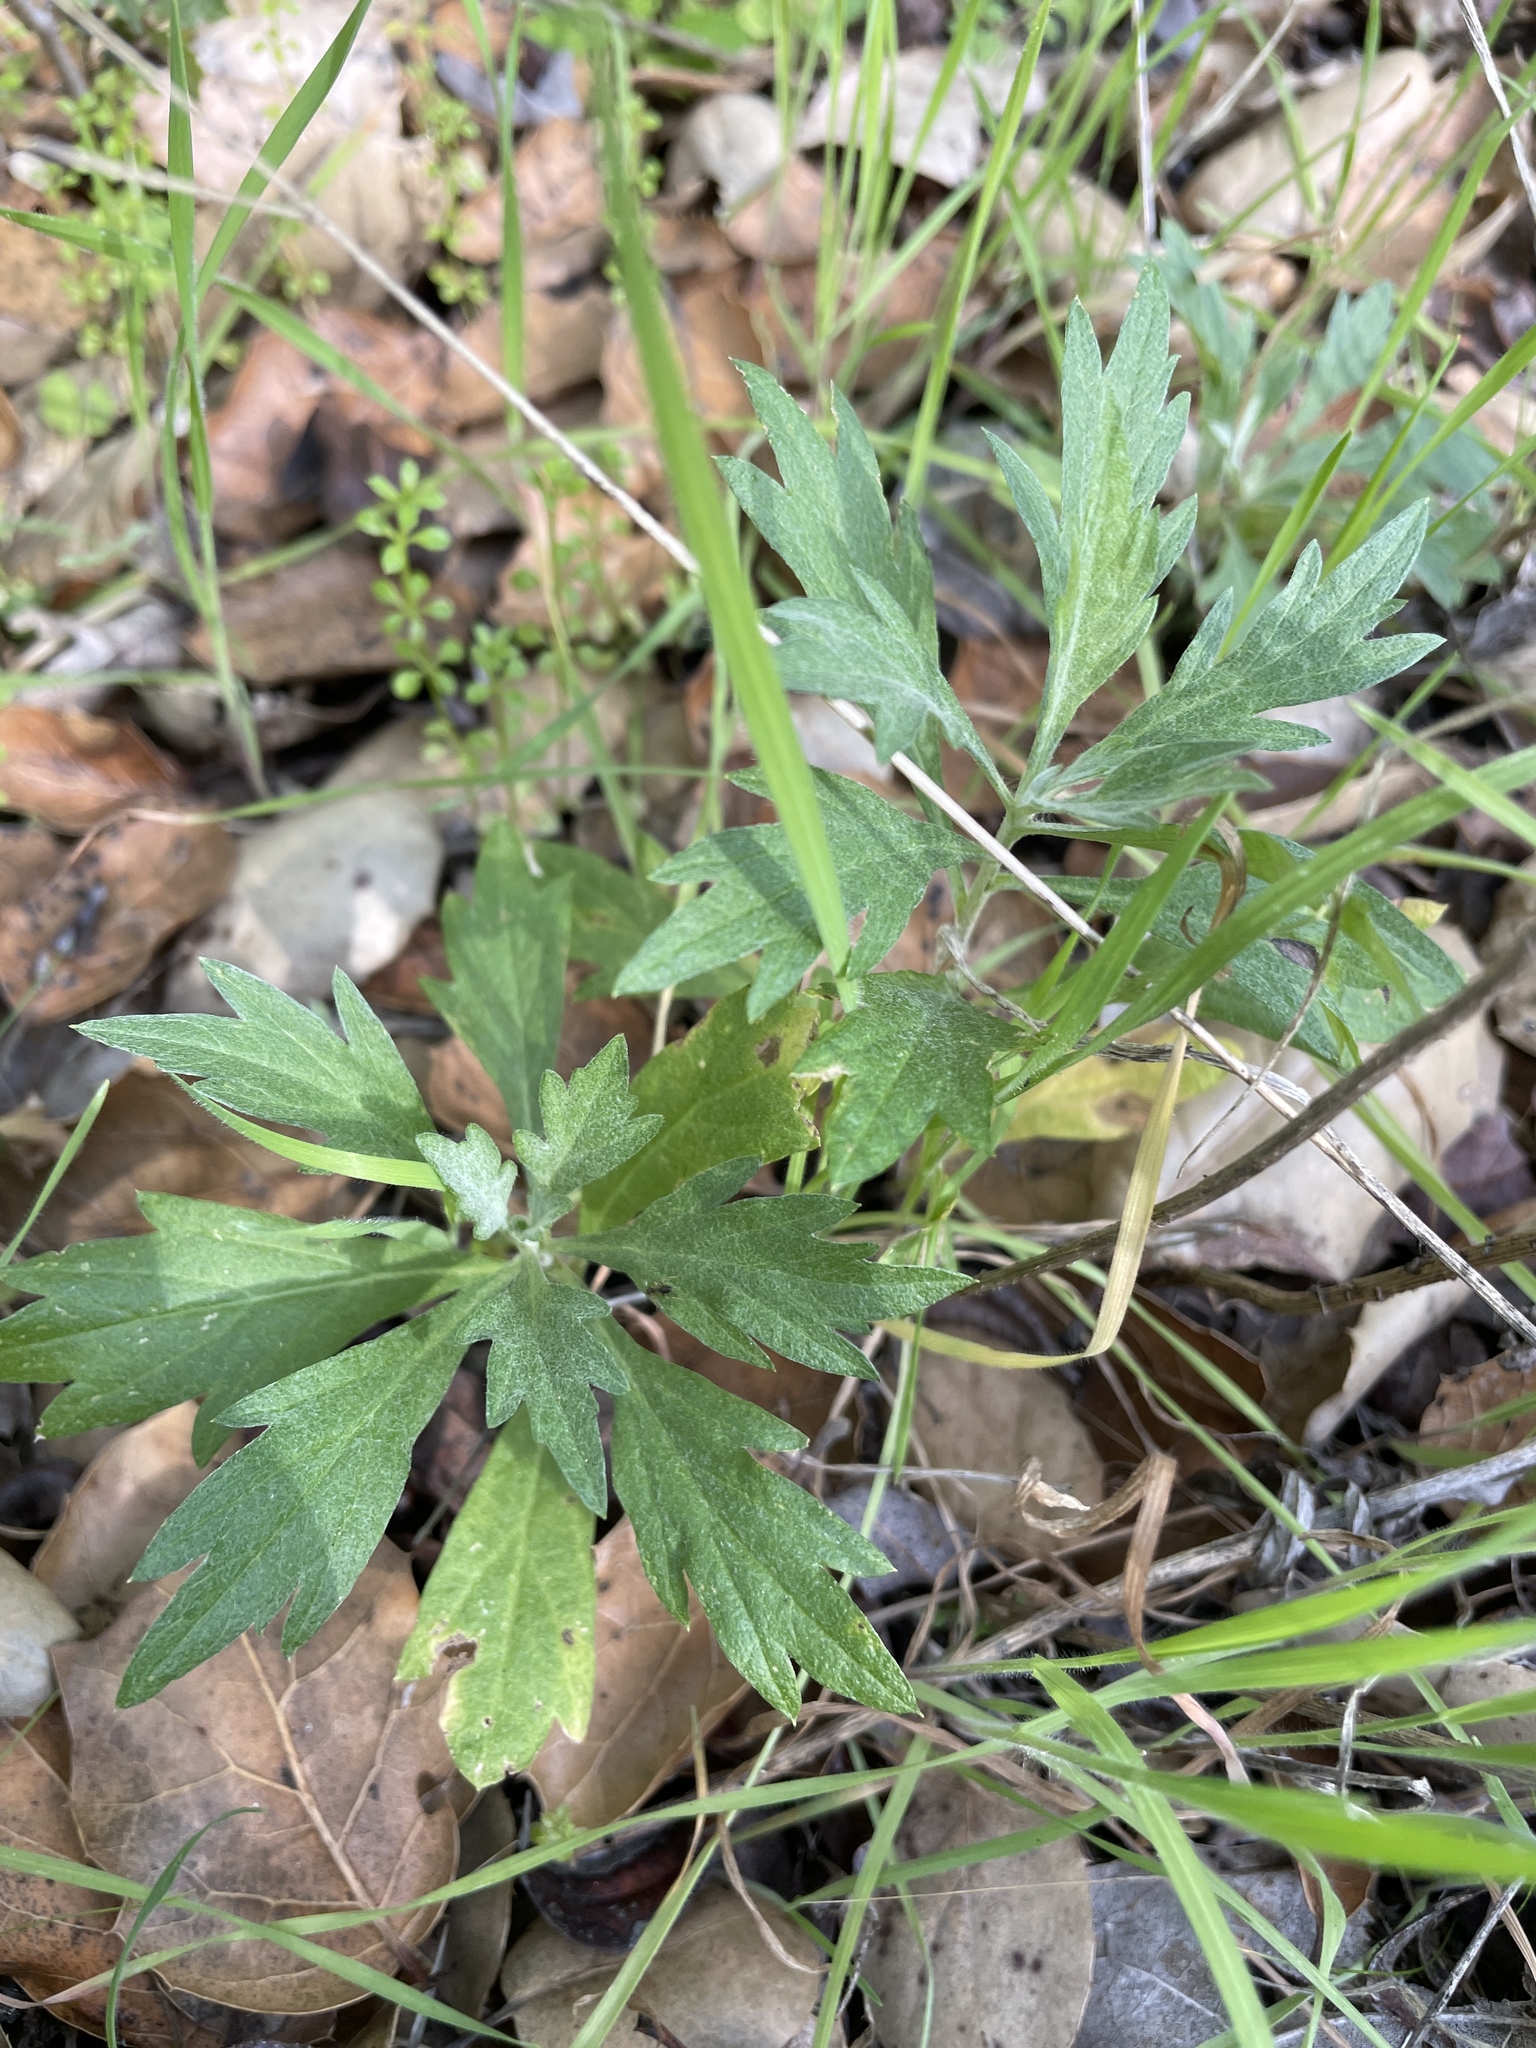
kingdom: Plantae
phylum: Tracheophyta
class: Magnoliopsida
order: Asterales
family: Asteraceae
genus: Artemisia
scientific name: Artemisia douglasiana
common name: Northwest mugwort
